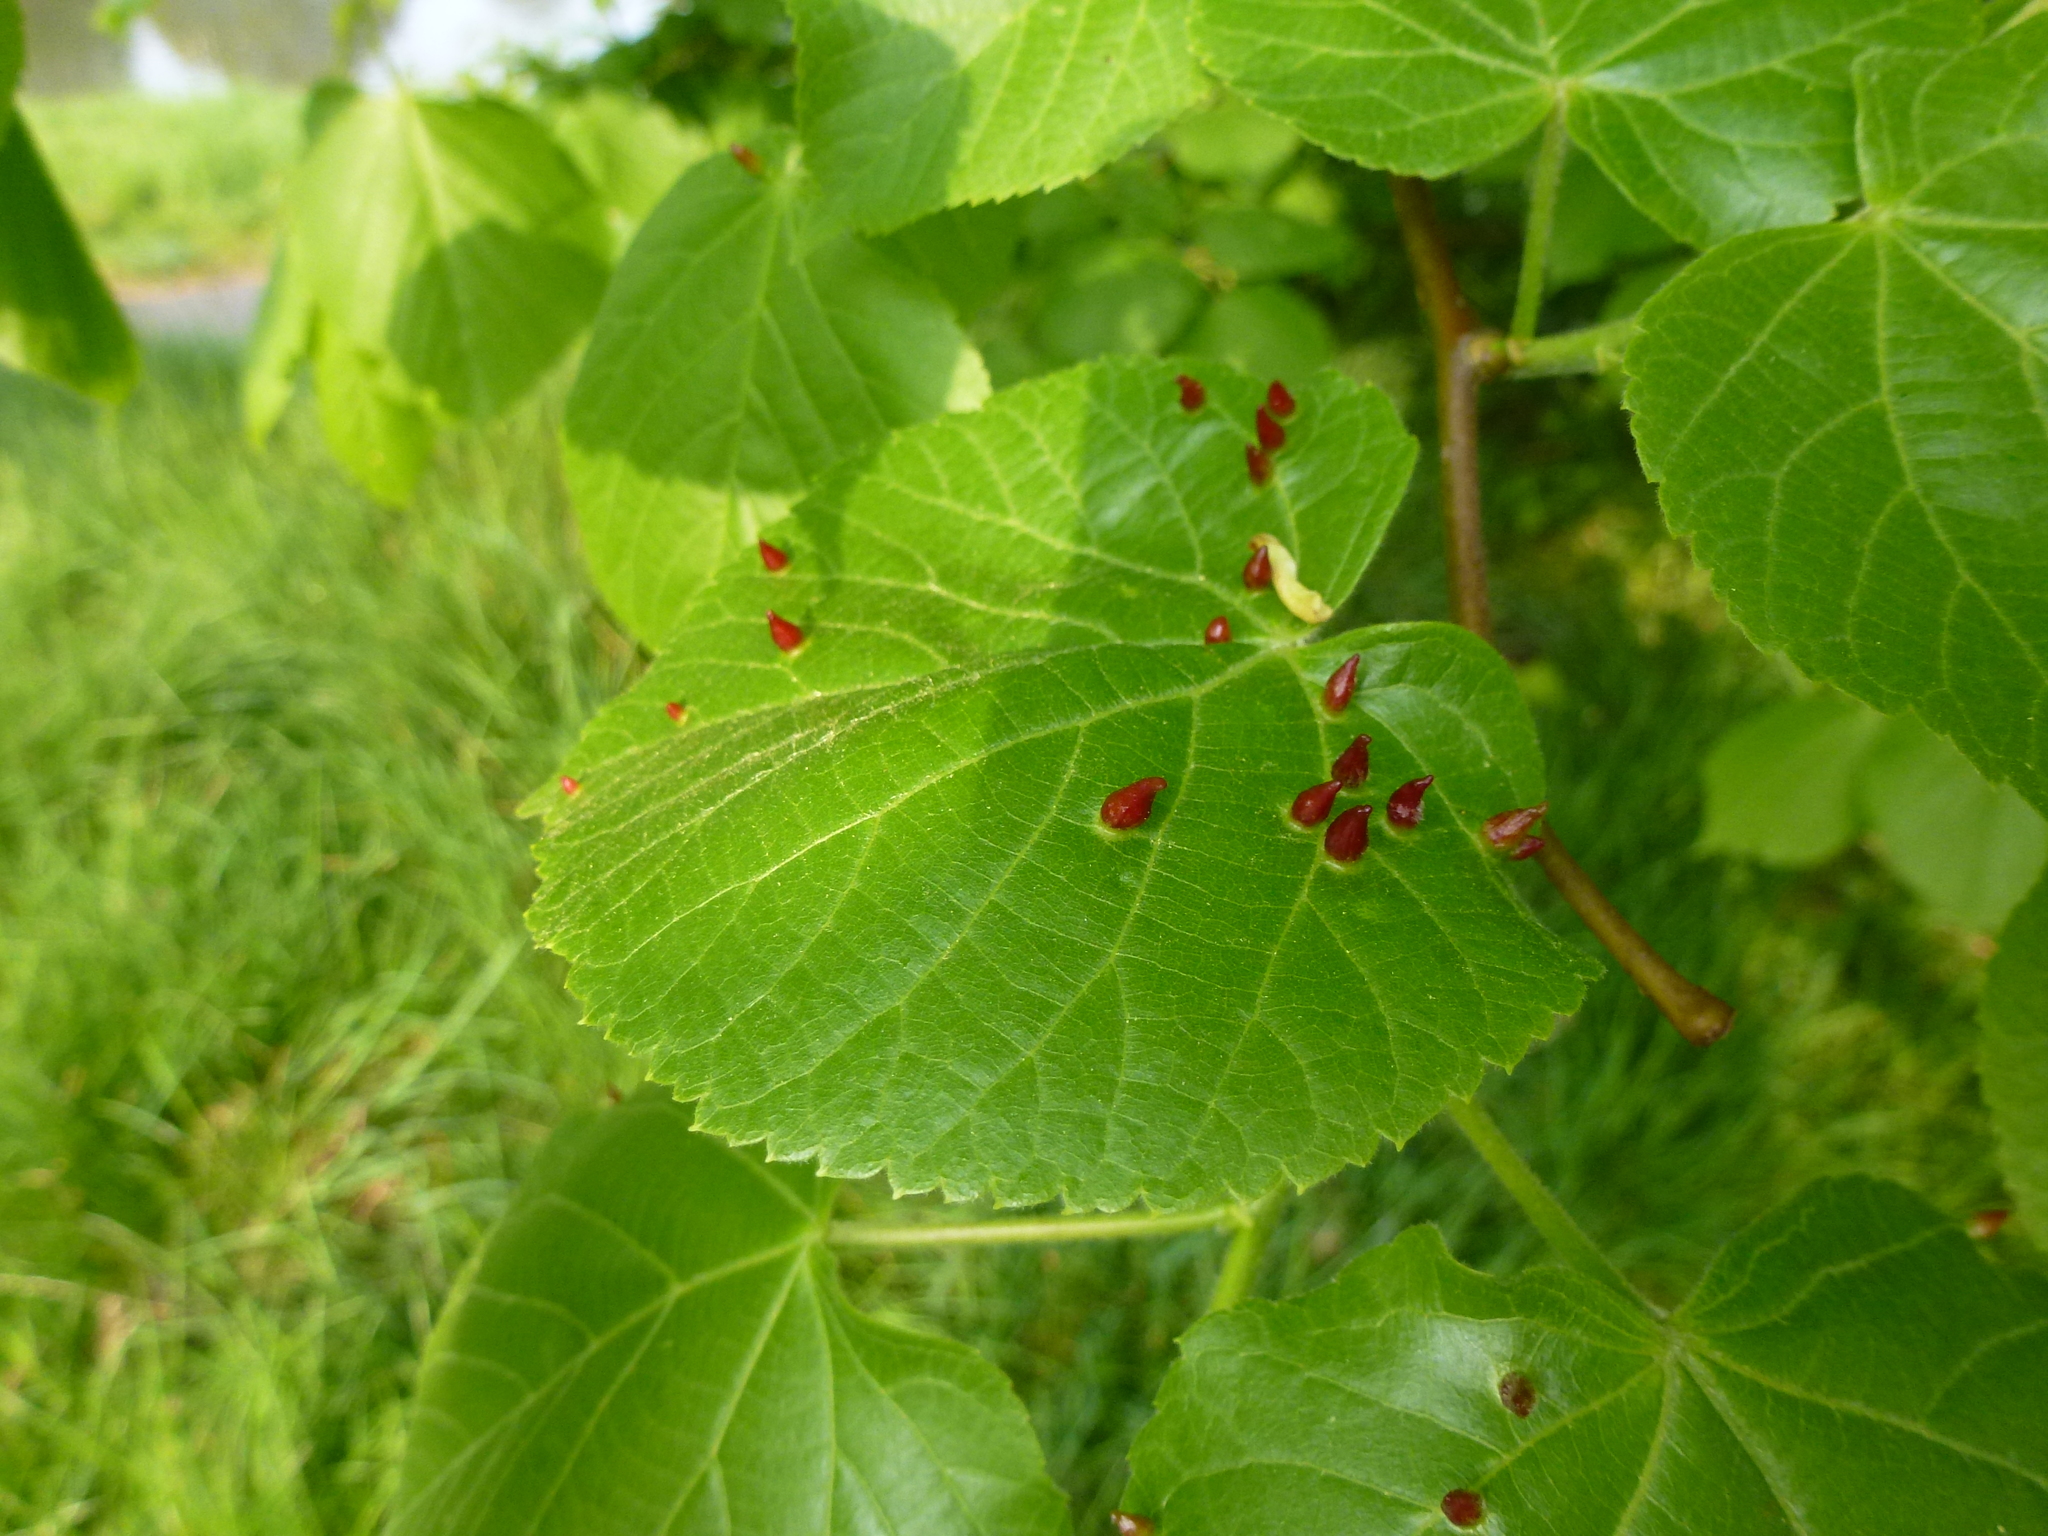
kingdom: Plantae
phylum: Tracheophyta
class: Magnoliopsida
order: Malvales
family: Malvaceae
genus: Tilia
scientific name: Tilia europaea
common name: European linden
